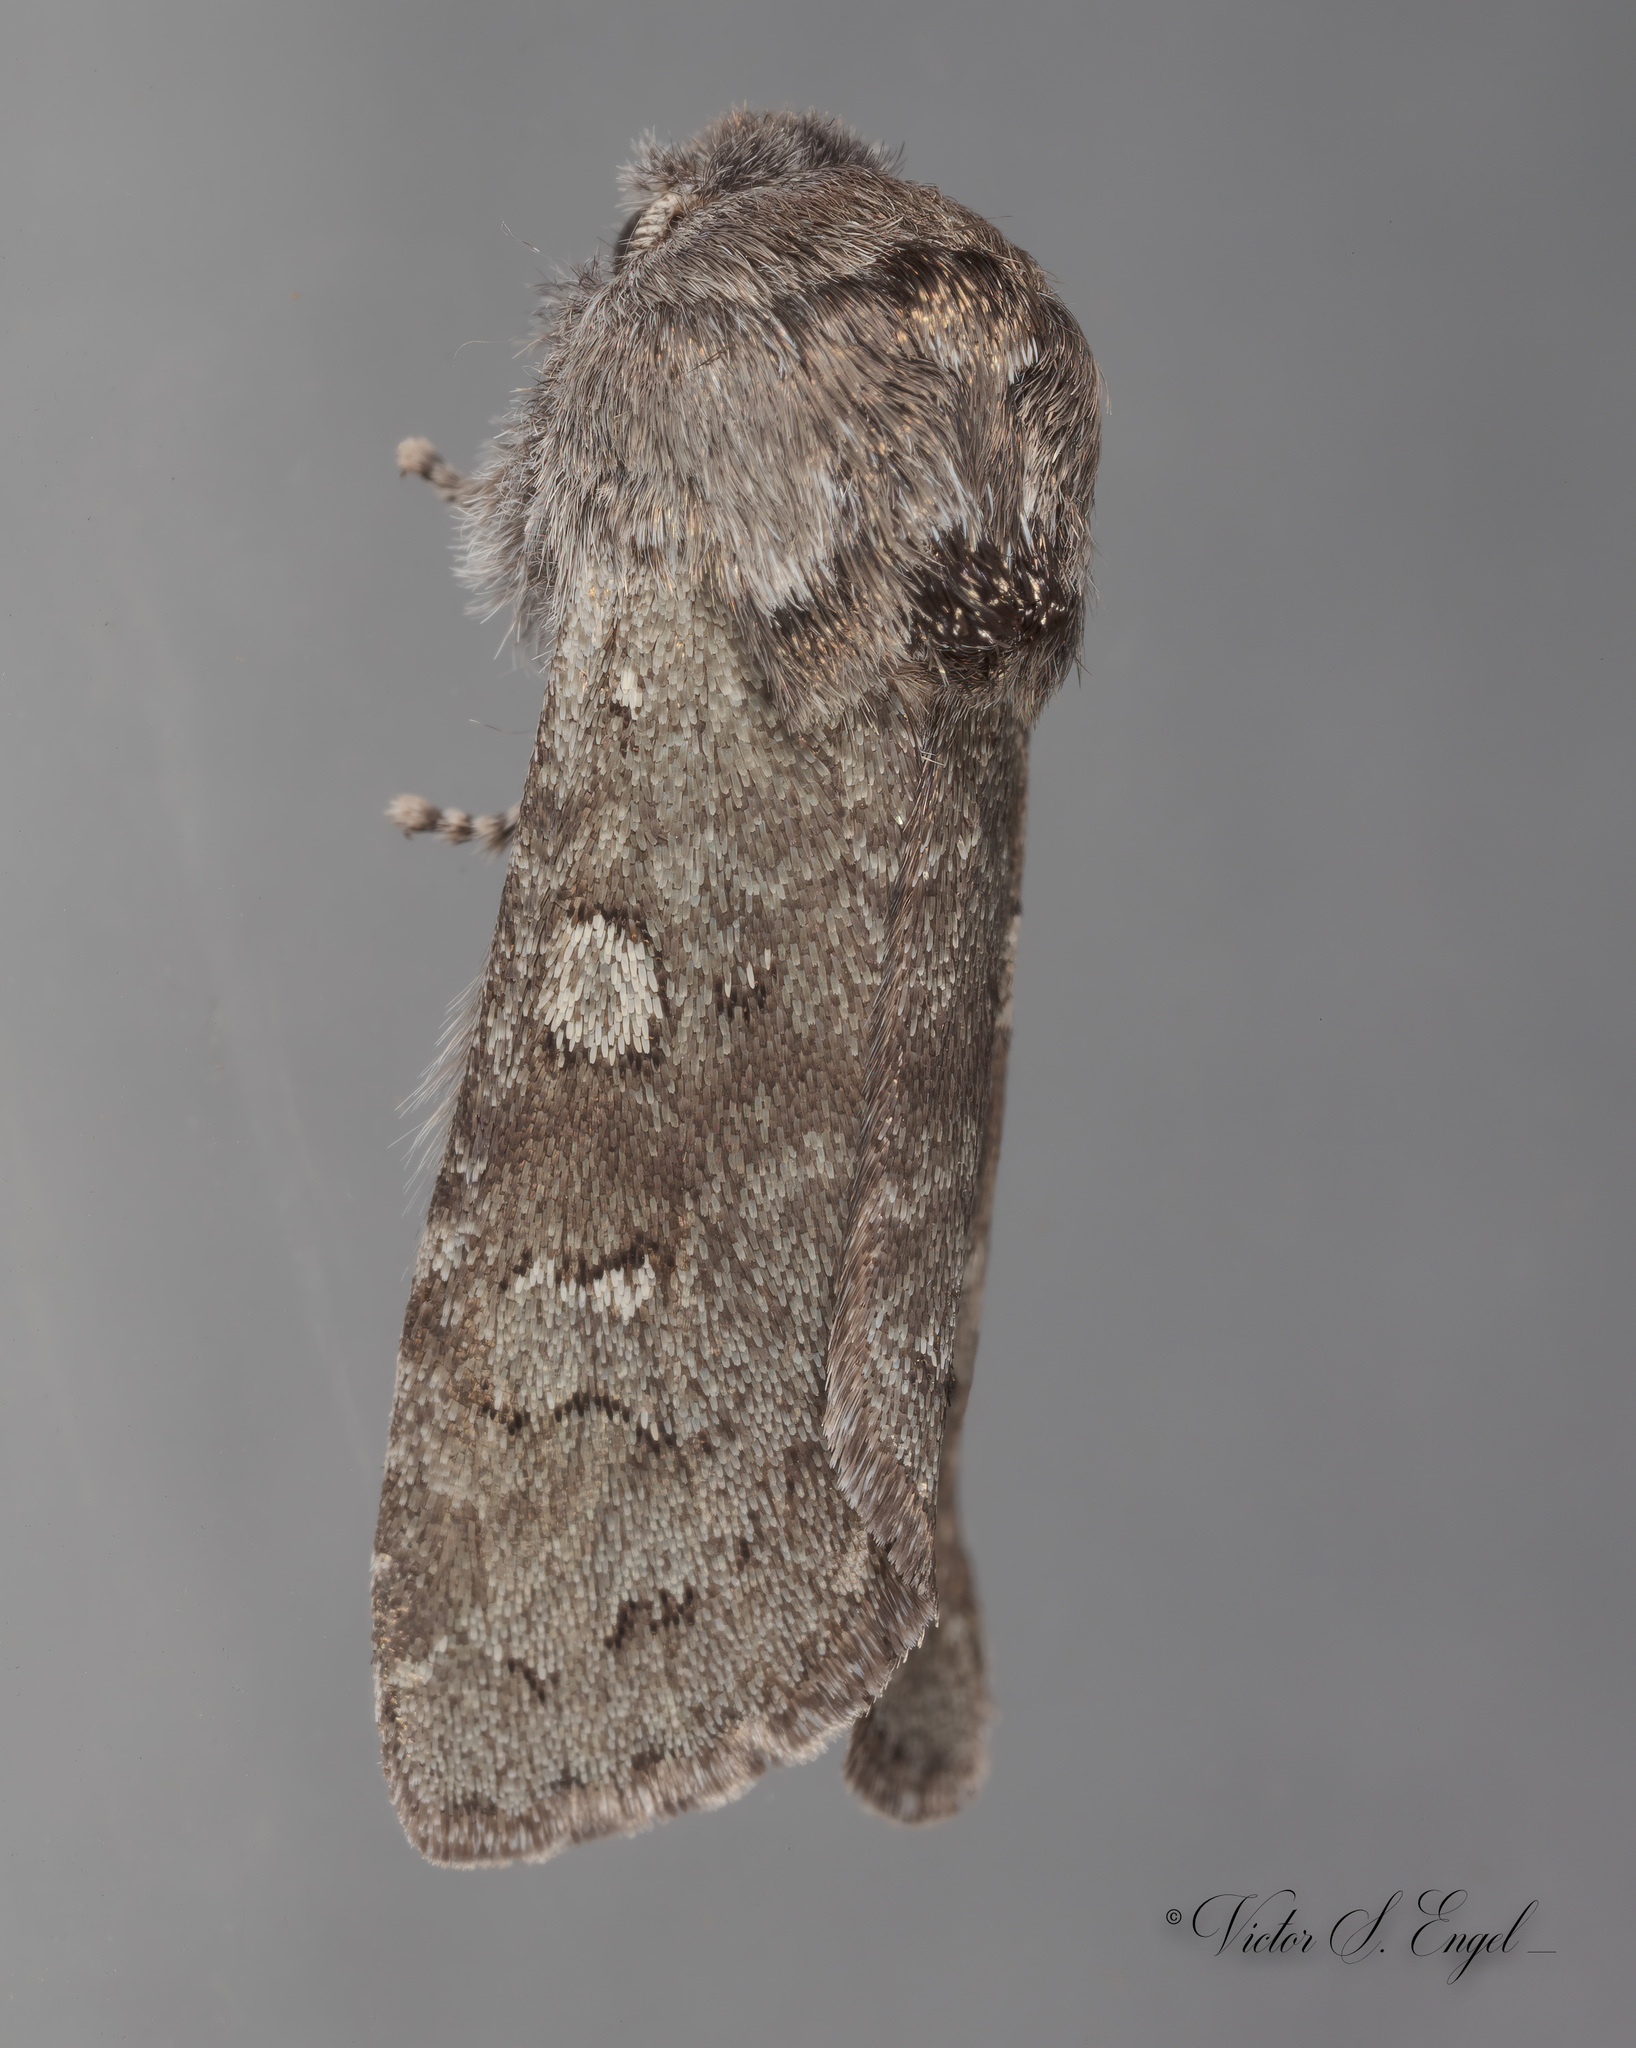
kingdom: Animalia
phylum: Arthropoda
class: Insecta
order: Lepidoptera
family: Noctuidae
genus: Psaphida
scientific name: Psaphida rolandi
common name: Roland's sallow
